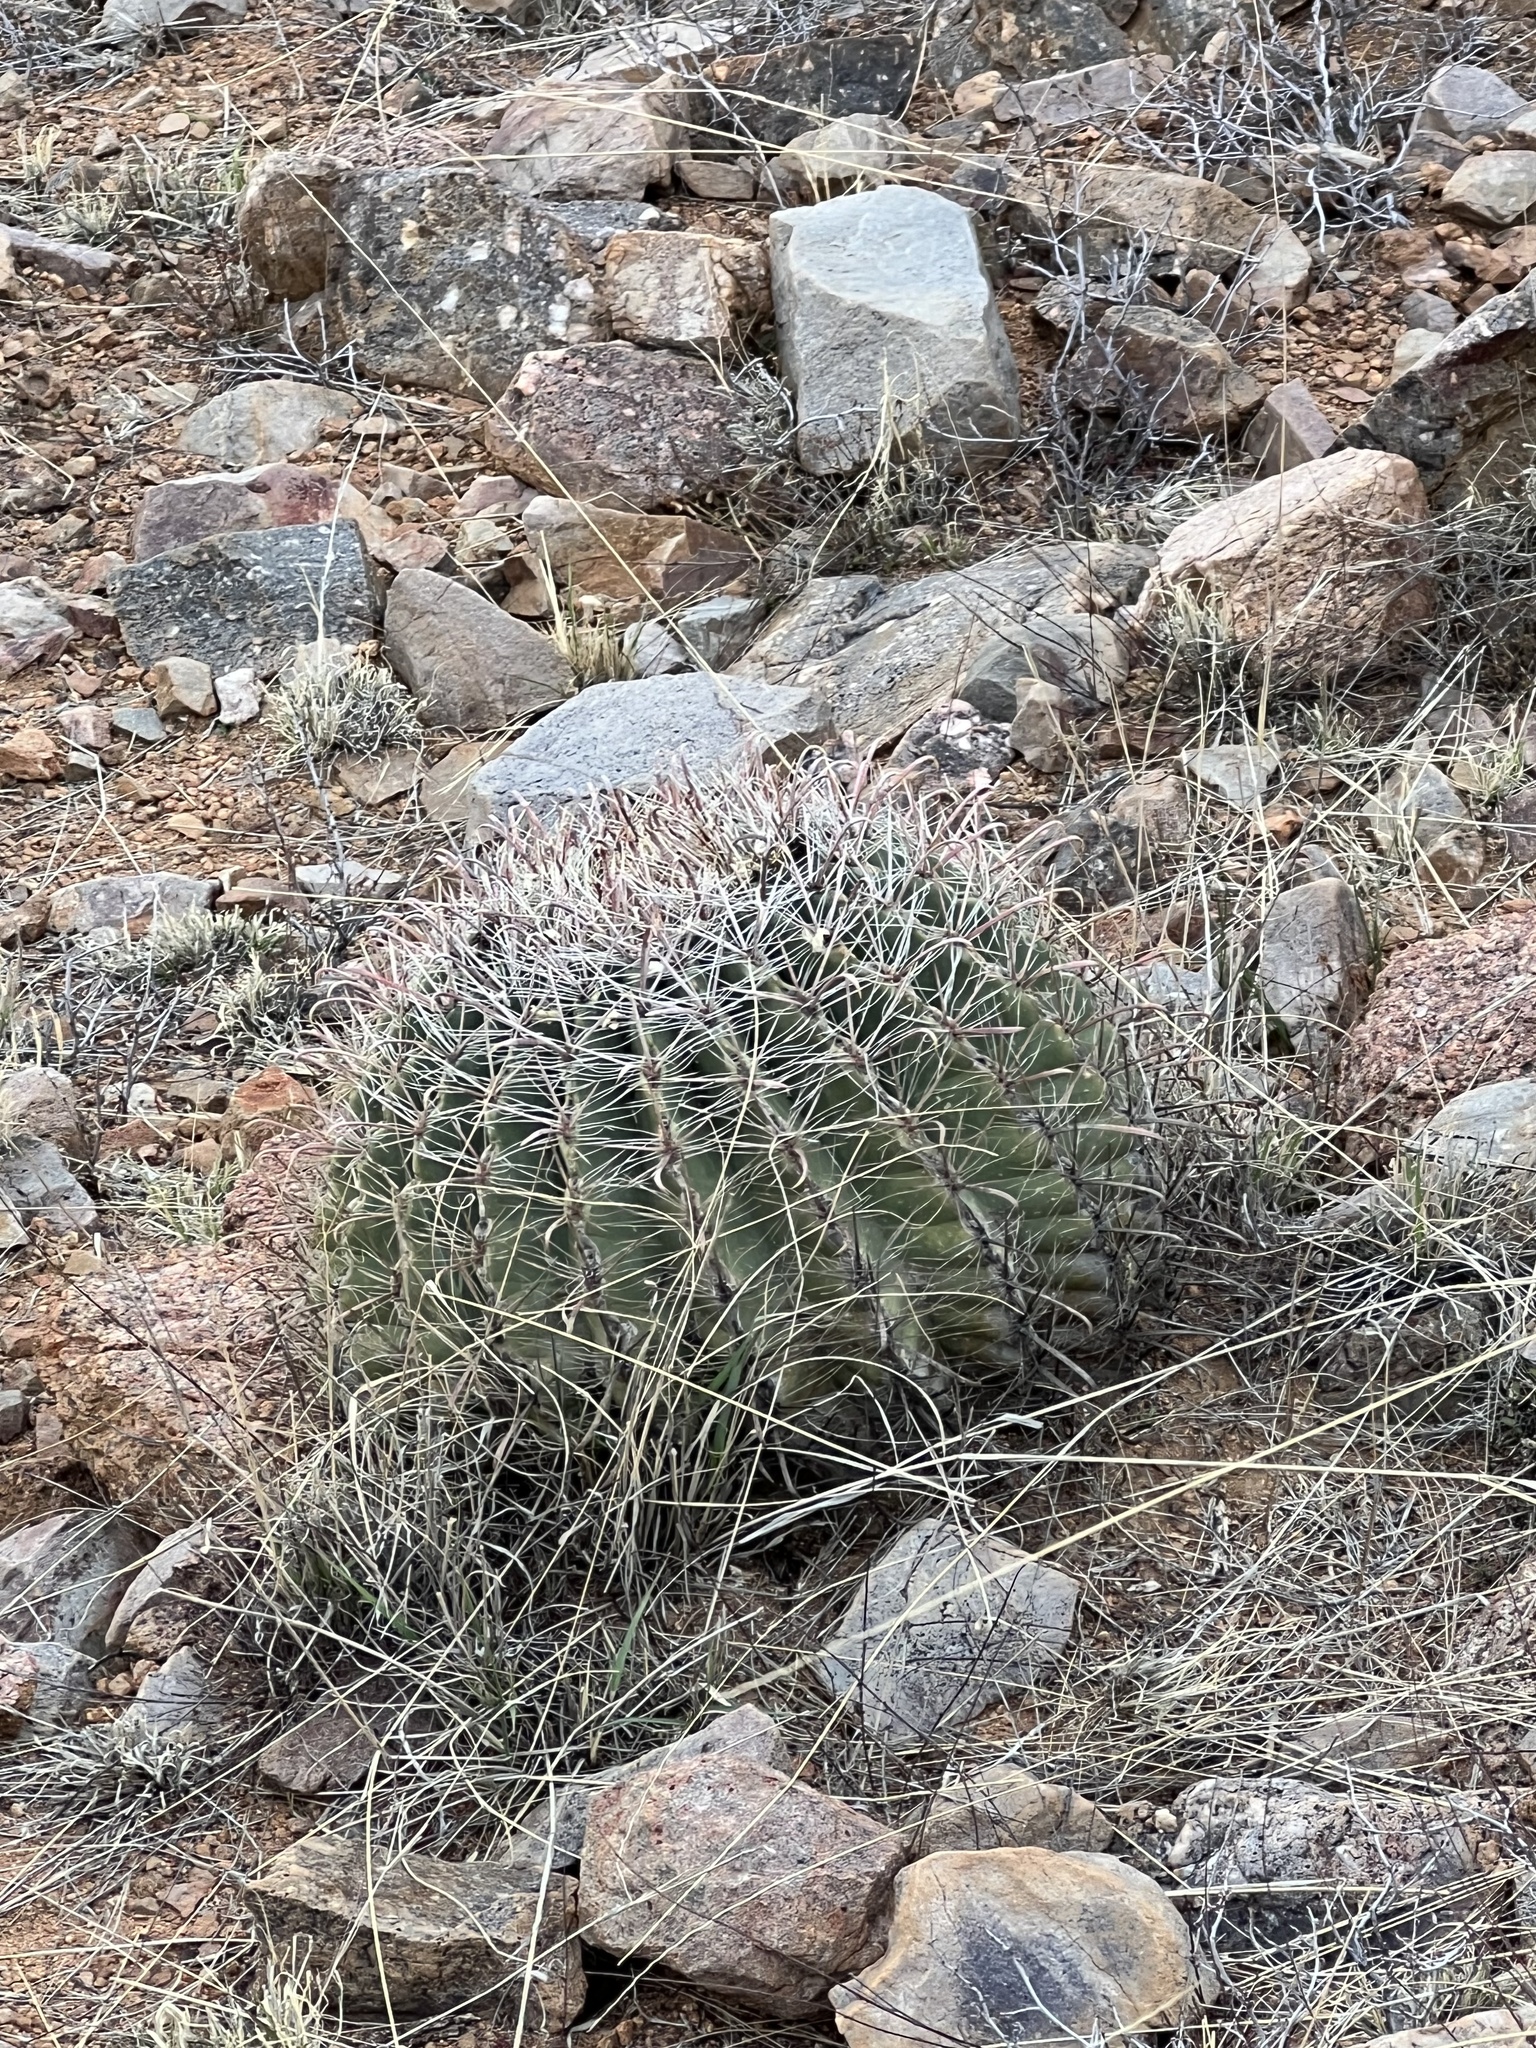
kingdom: Plantae
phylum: Tracheophyta
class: Magnoliopsida
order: Caryophyllales
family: Cactaceae
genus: Ferocactus
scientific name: Ferocactus wislizeni
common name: Candy barrel cactus
